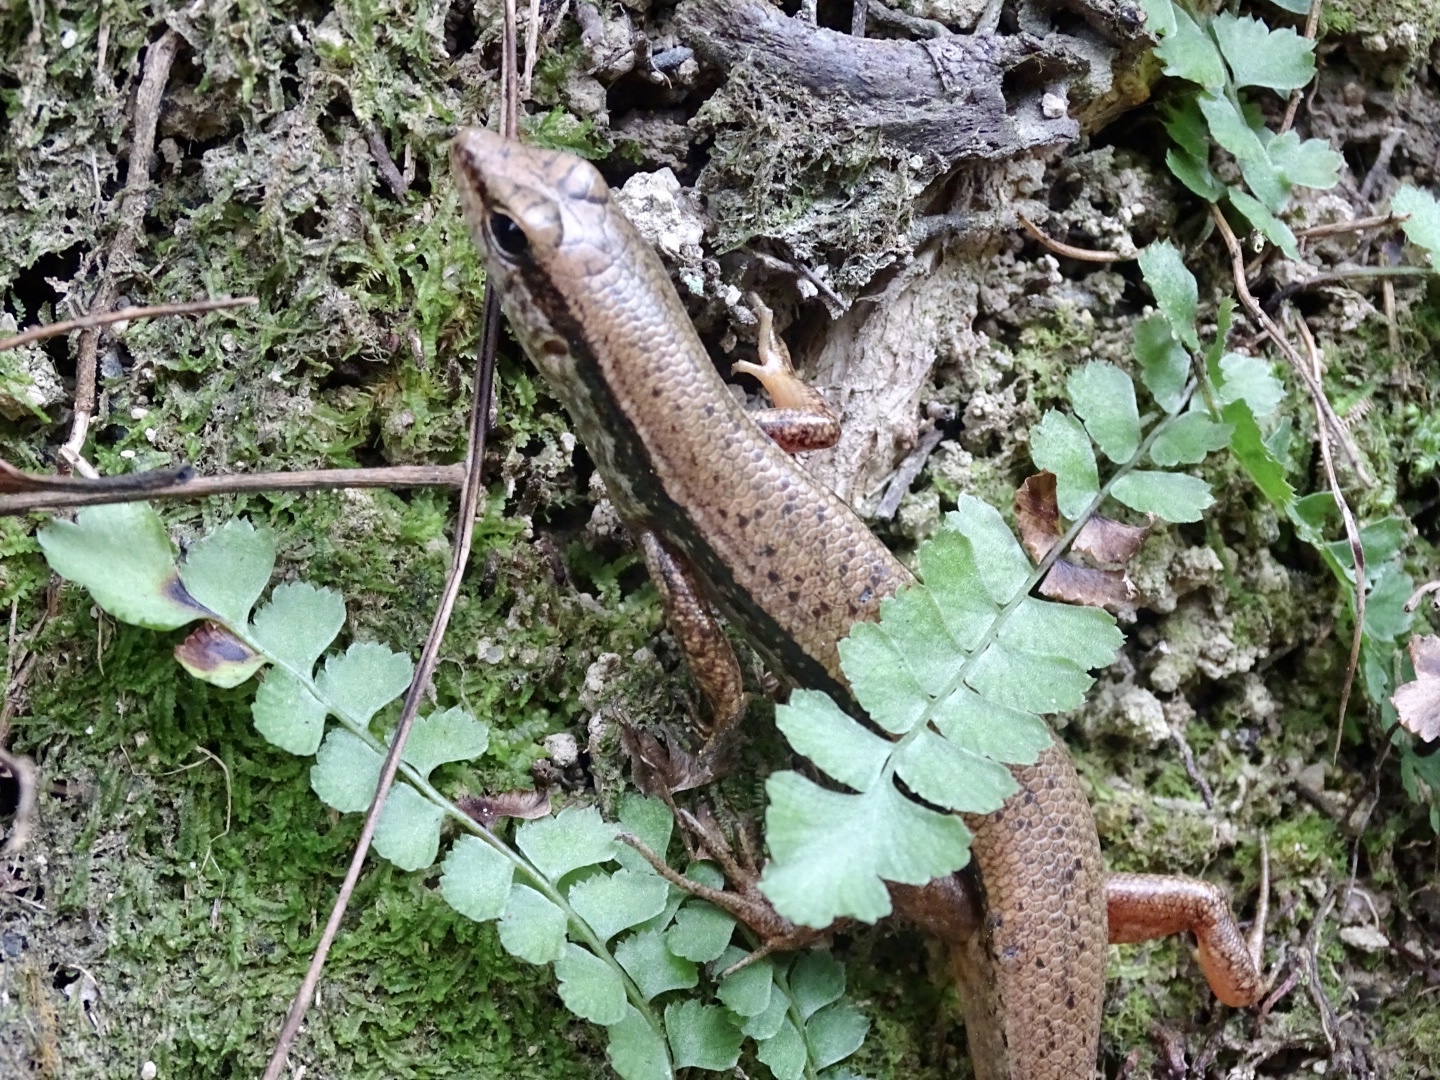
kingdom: Animalia
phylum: Chordata
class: Squamata
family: Scincidae
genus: Sphenomorphus
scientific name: Sphenomorphus indicus
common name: Himalayan forest skink
